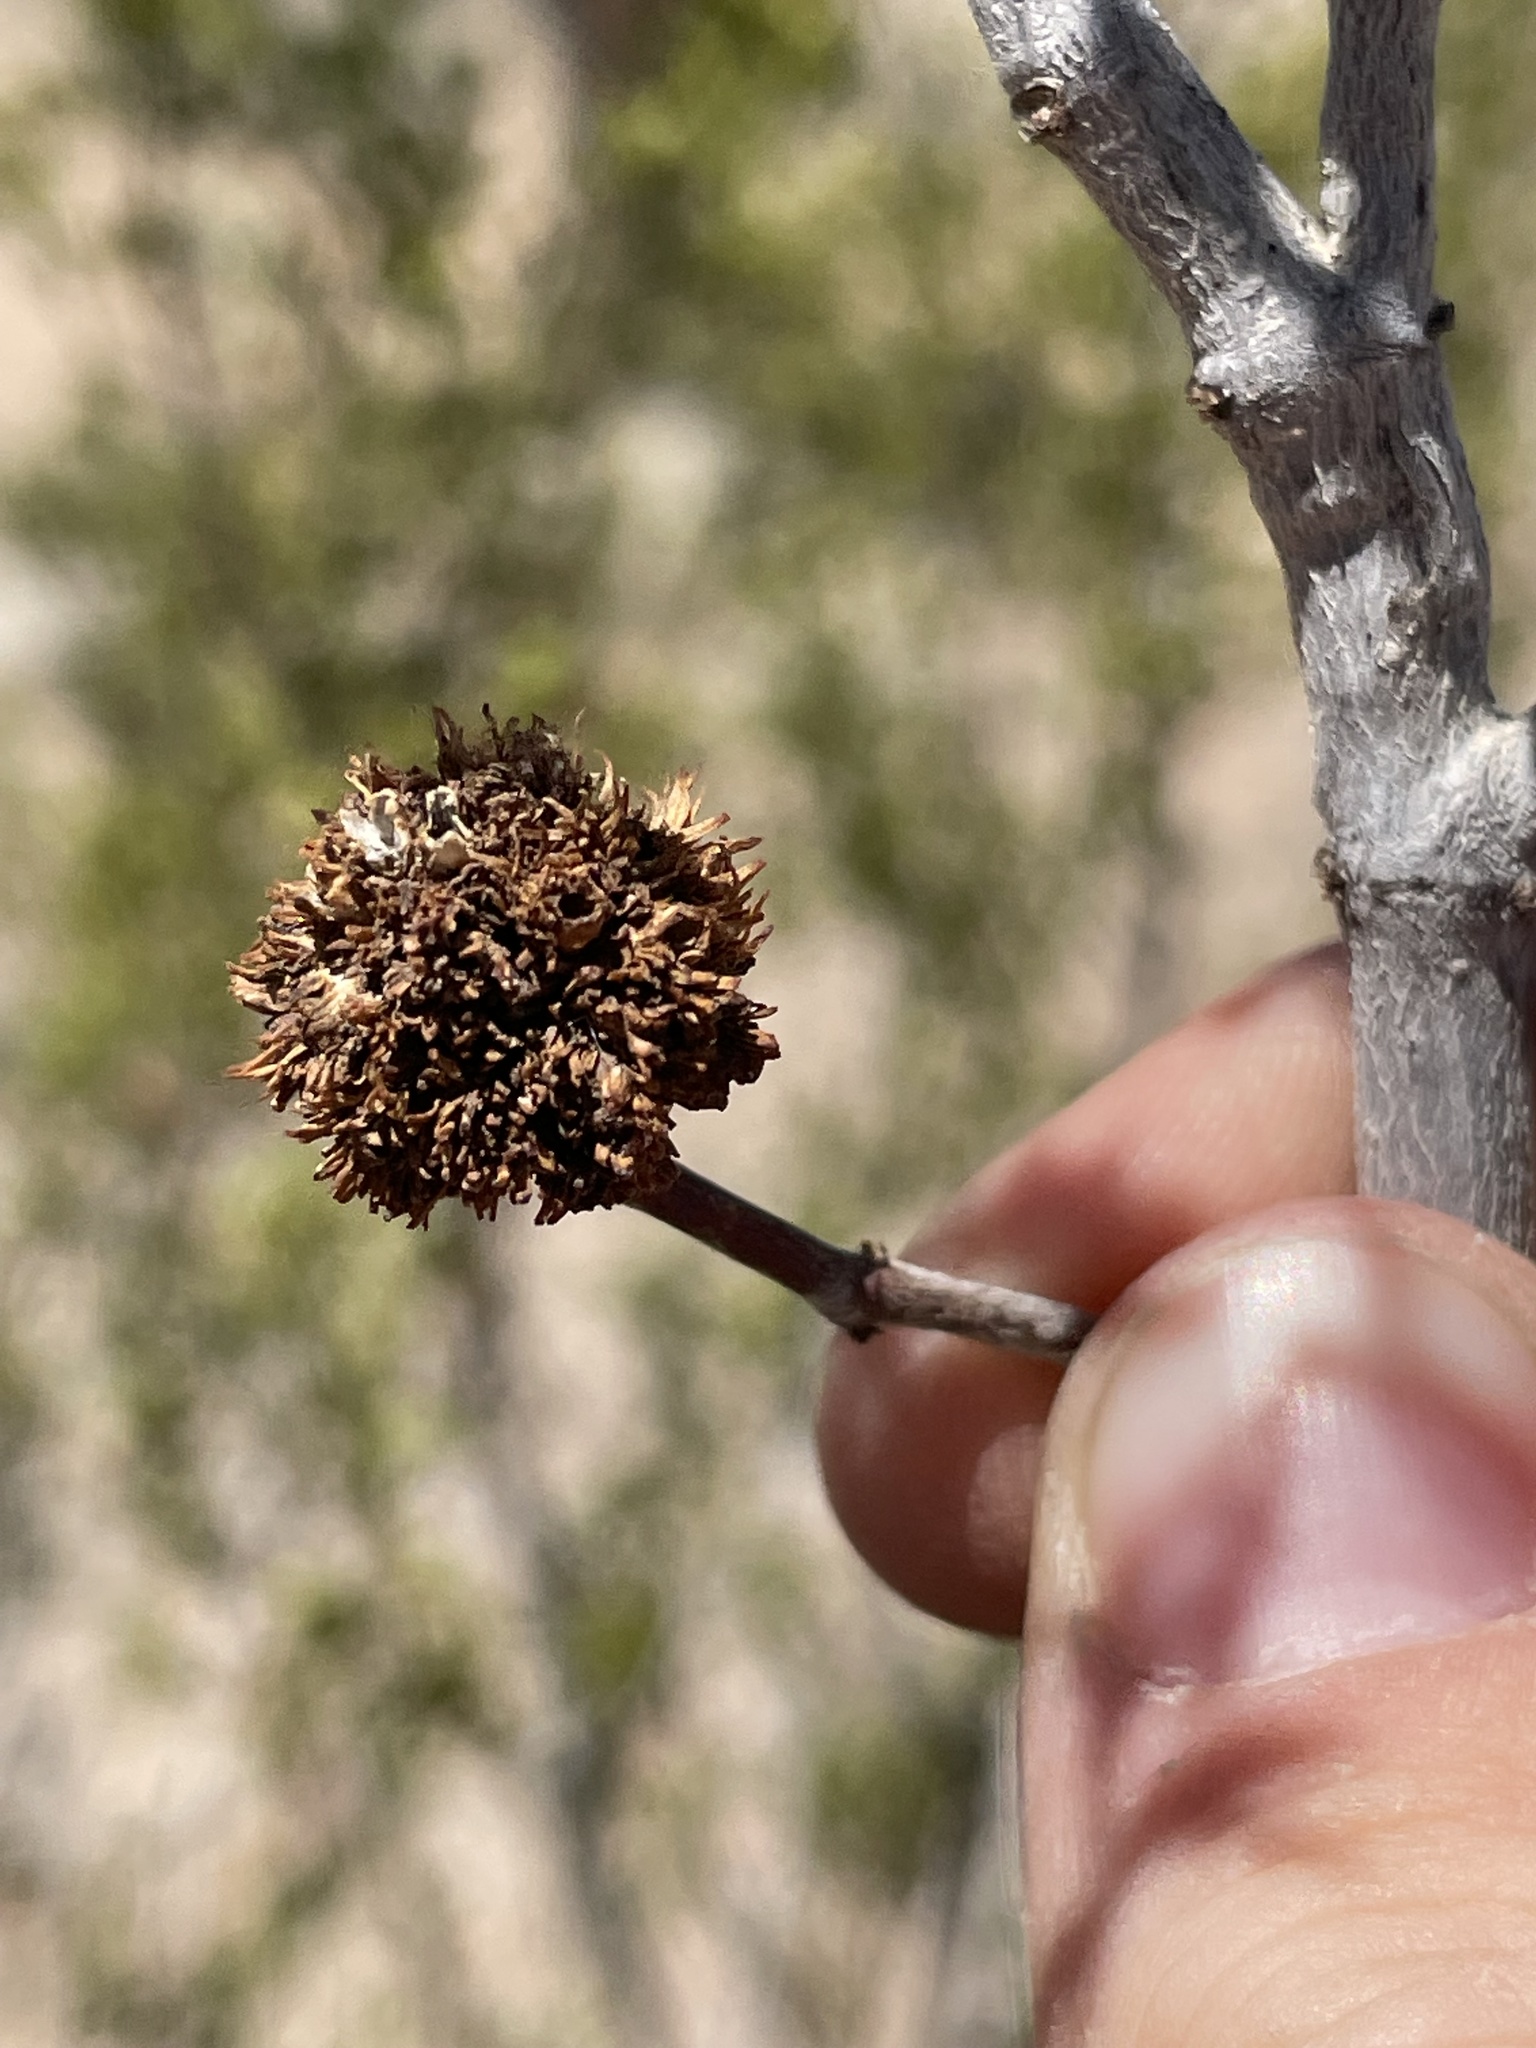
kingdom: Animalia
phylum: Arthropoda
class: Insecta
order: Diptera
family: Cecidomyiidae
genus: Asphondylia
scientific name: Asphondylia auripila
